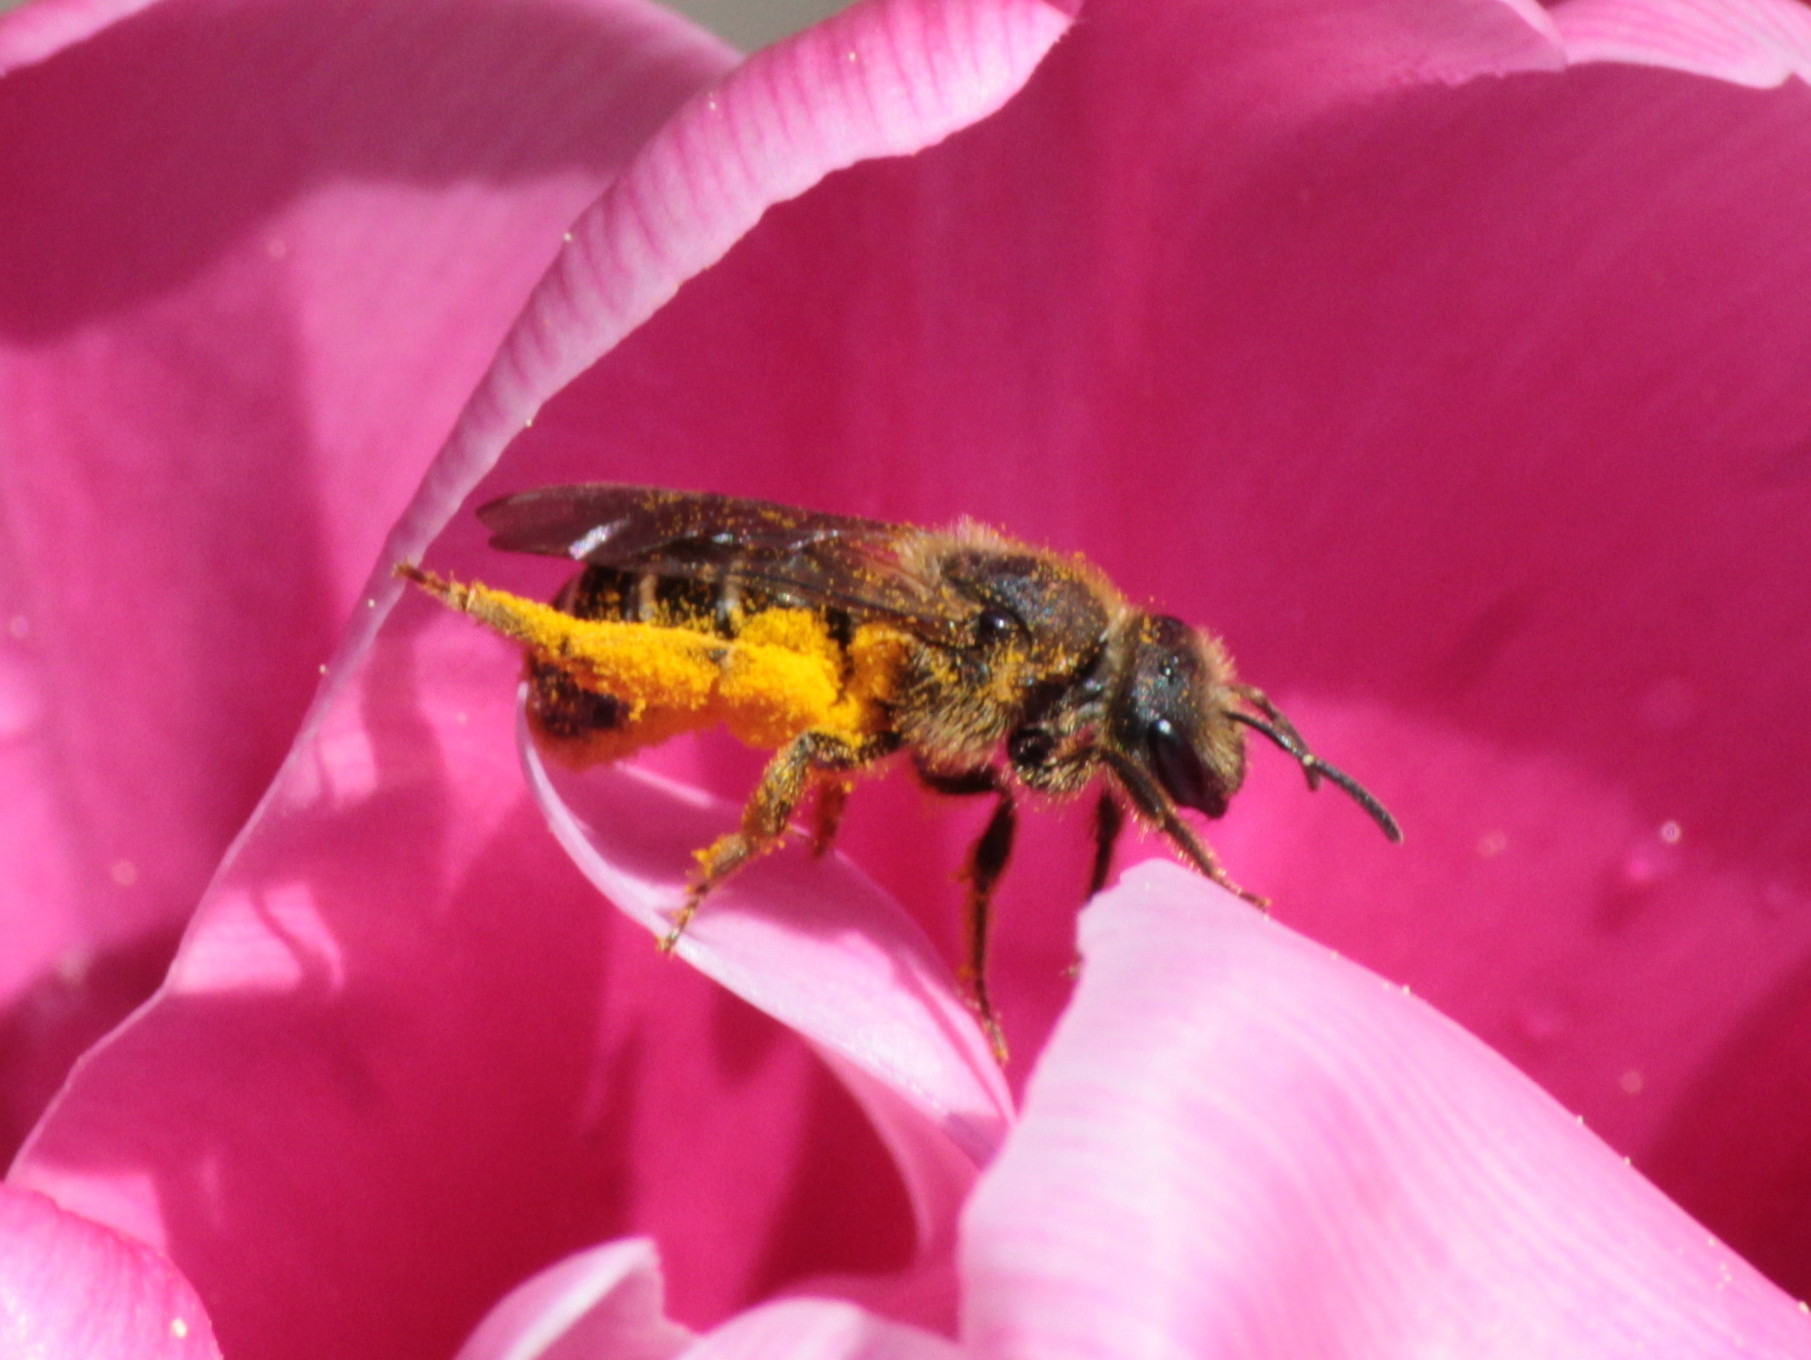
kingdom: Animalia
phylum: Arthropoda
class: Insecta
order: Hymenoptera
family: Halictidae
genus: Halictus
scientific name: Halictus rubicundus
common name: Orange-legged furrow bee
